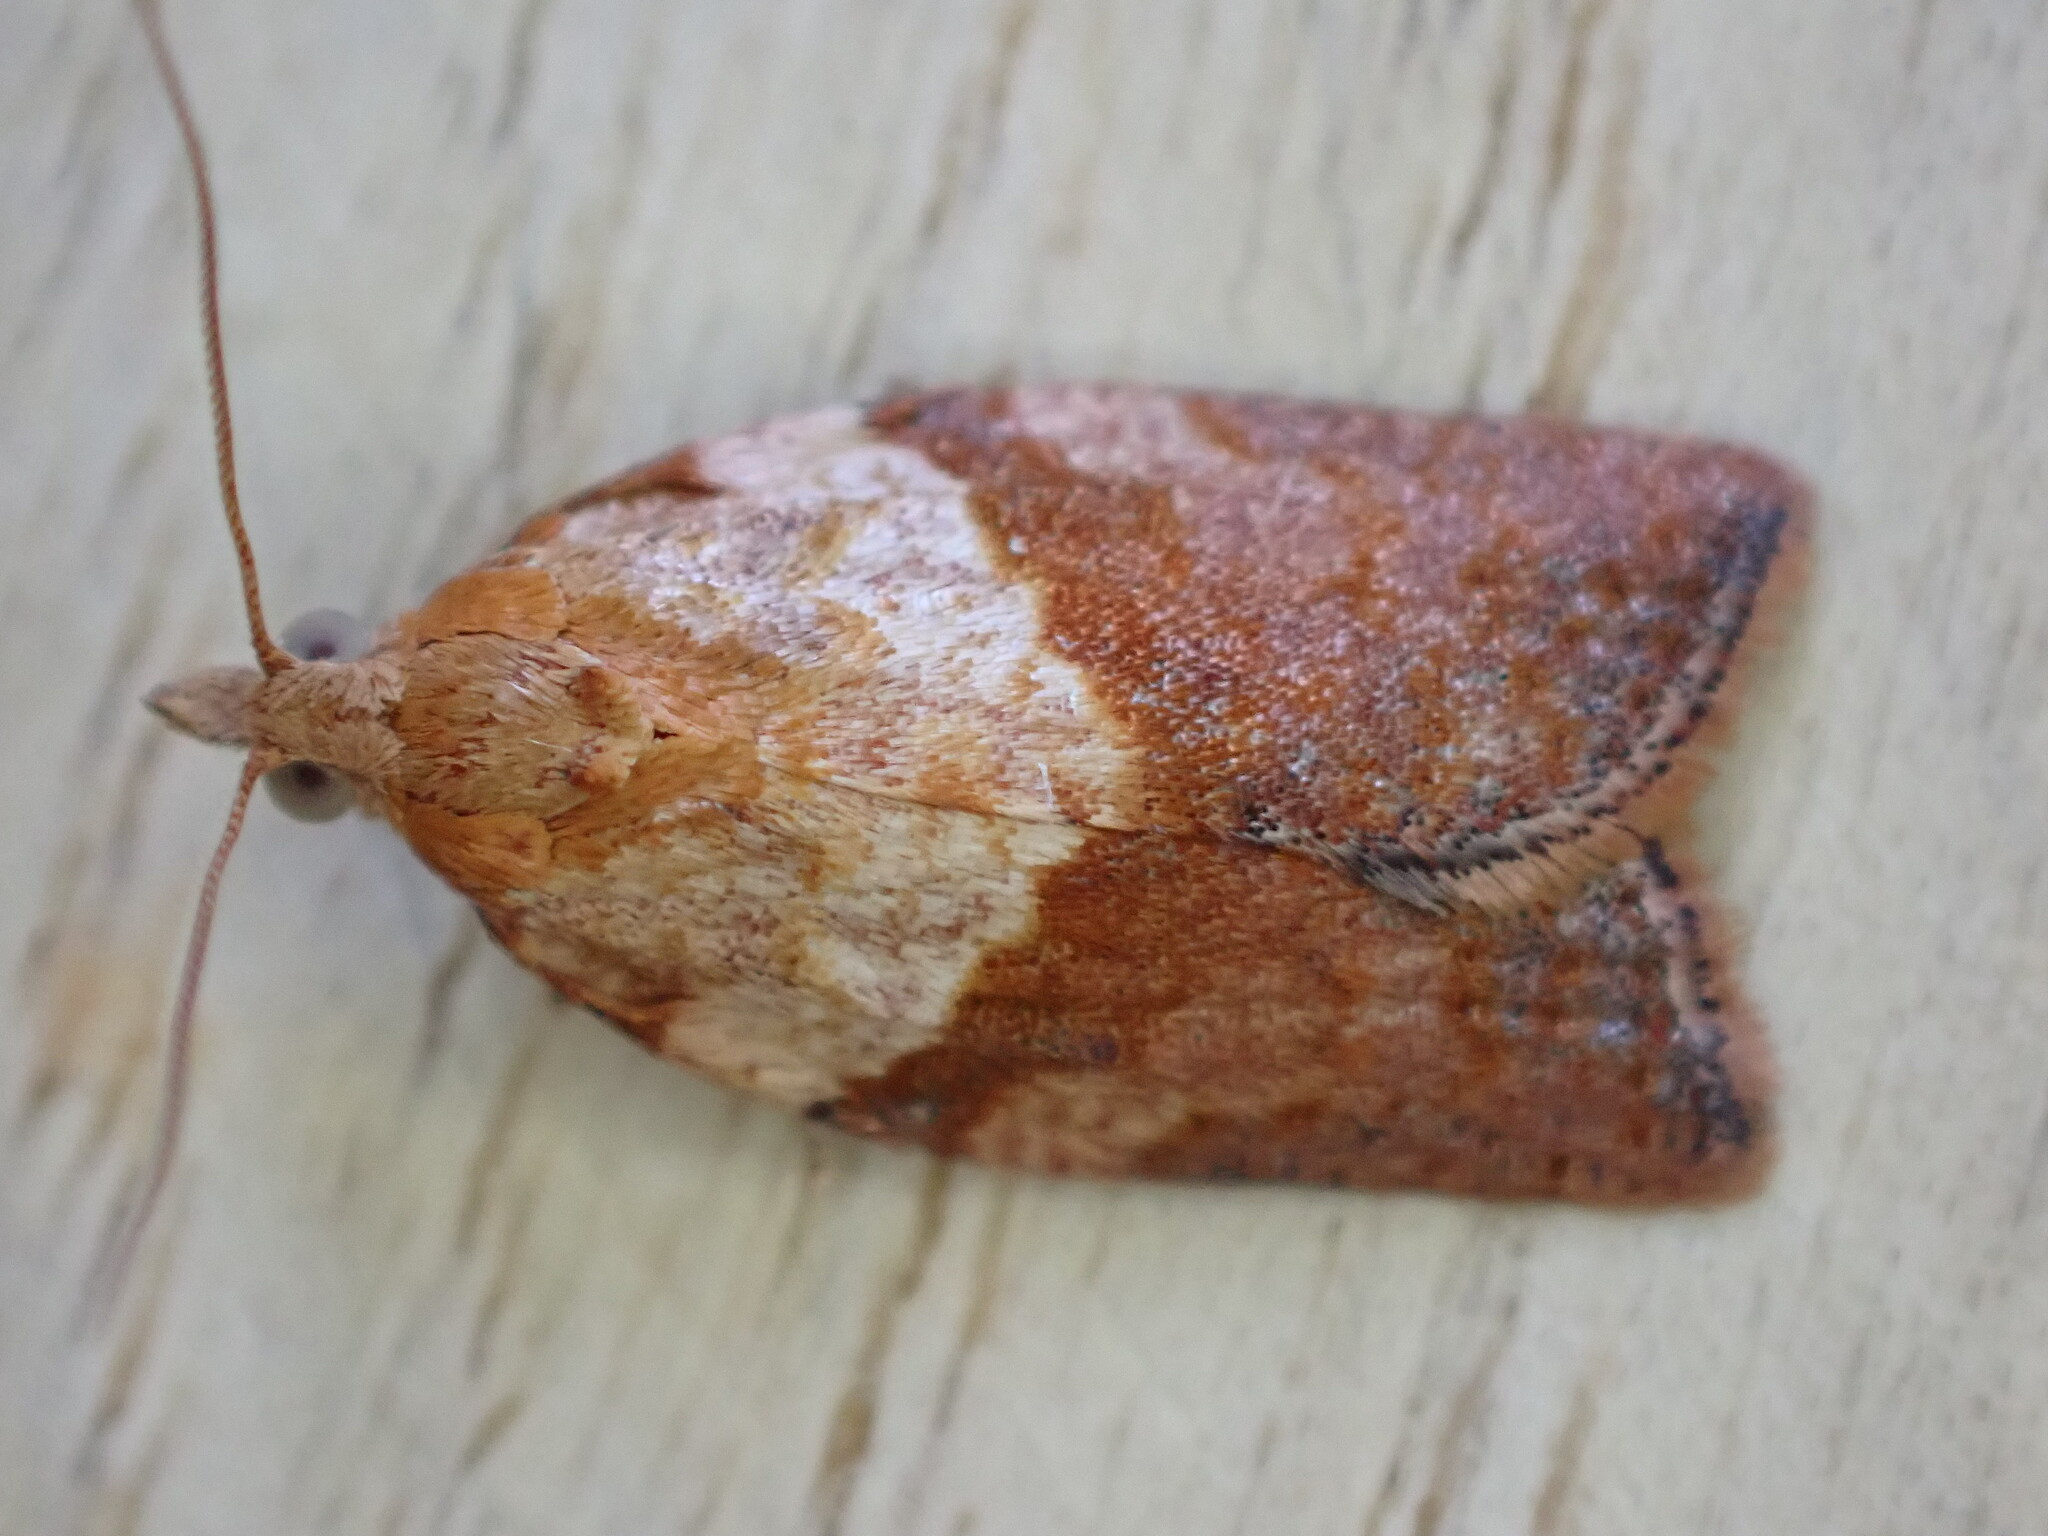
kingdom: Animalia
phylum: Arthropoda
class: Insecta
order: Lepidoptera
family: Tortricidae
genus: Epiphyas
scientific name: Epiphyas postvittana
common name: Light brown apple moth
